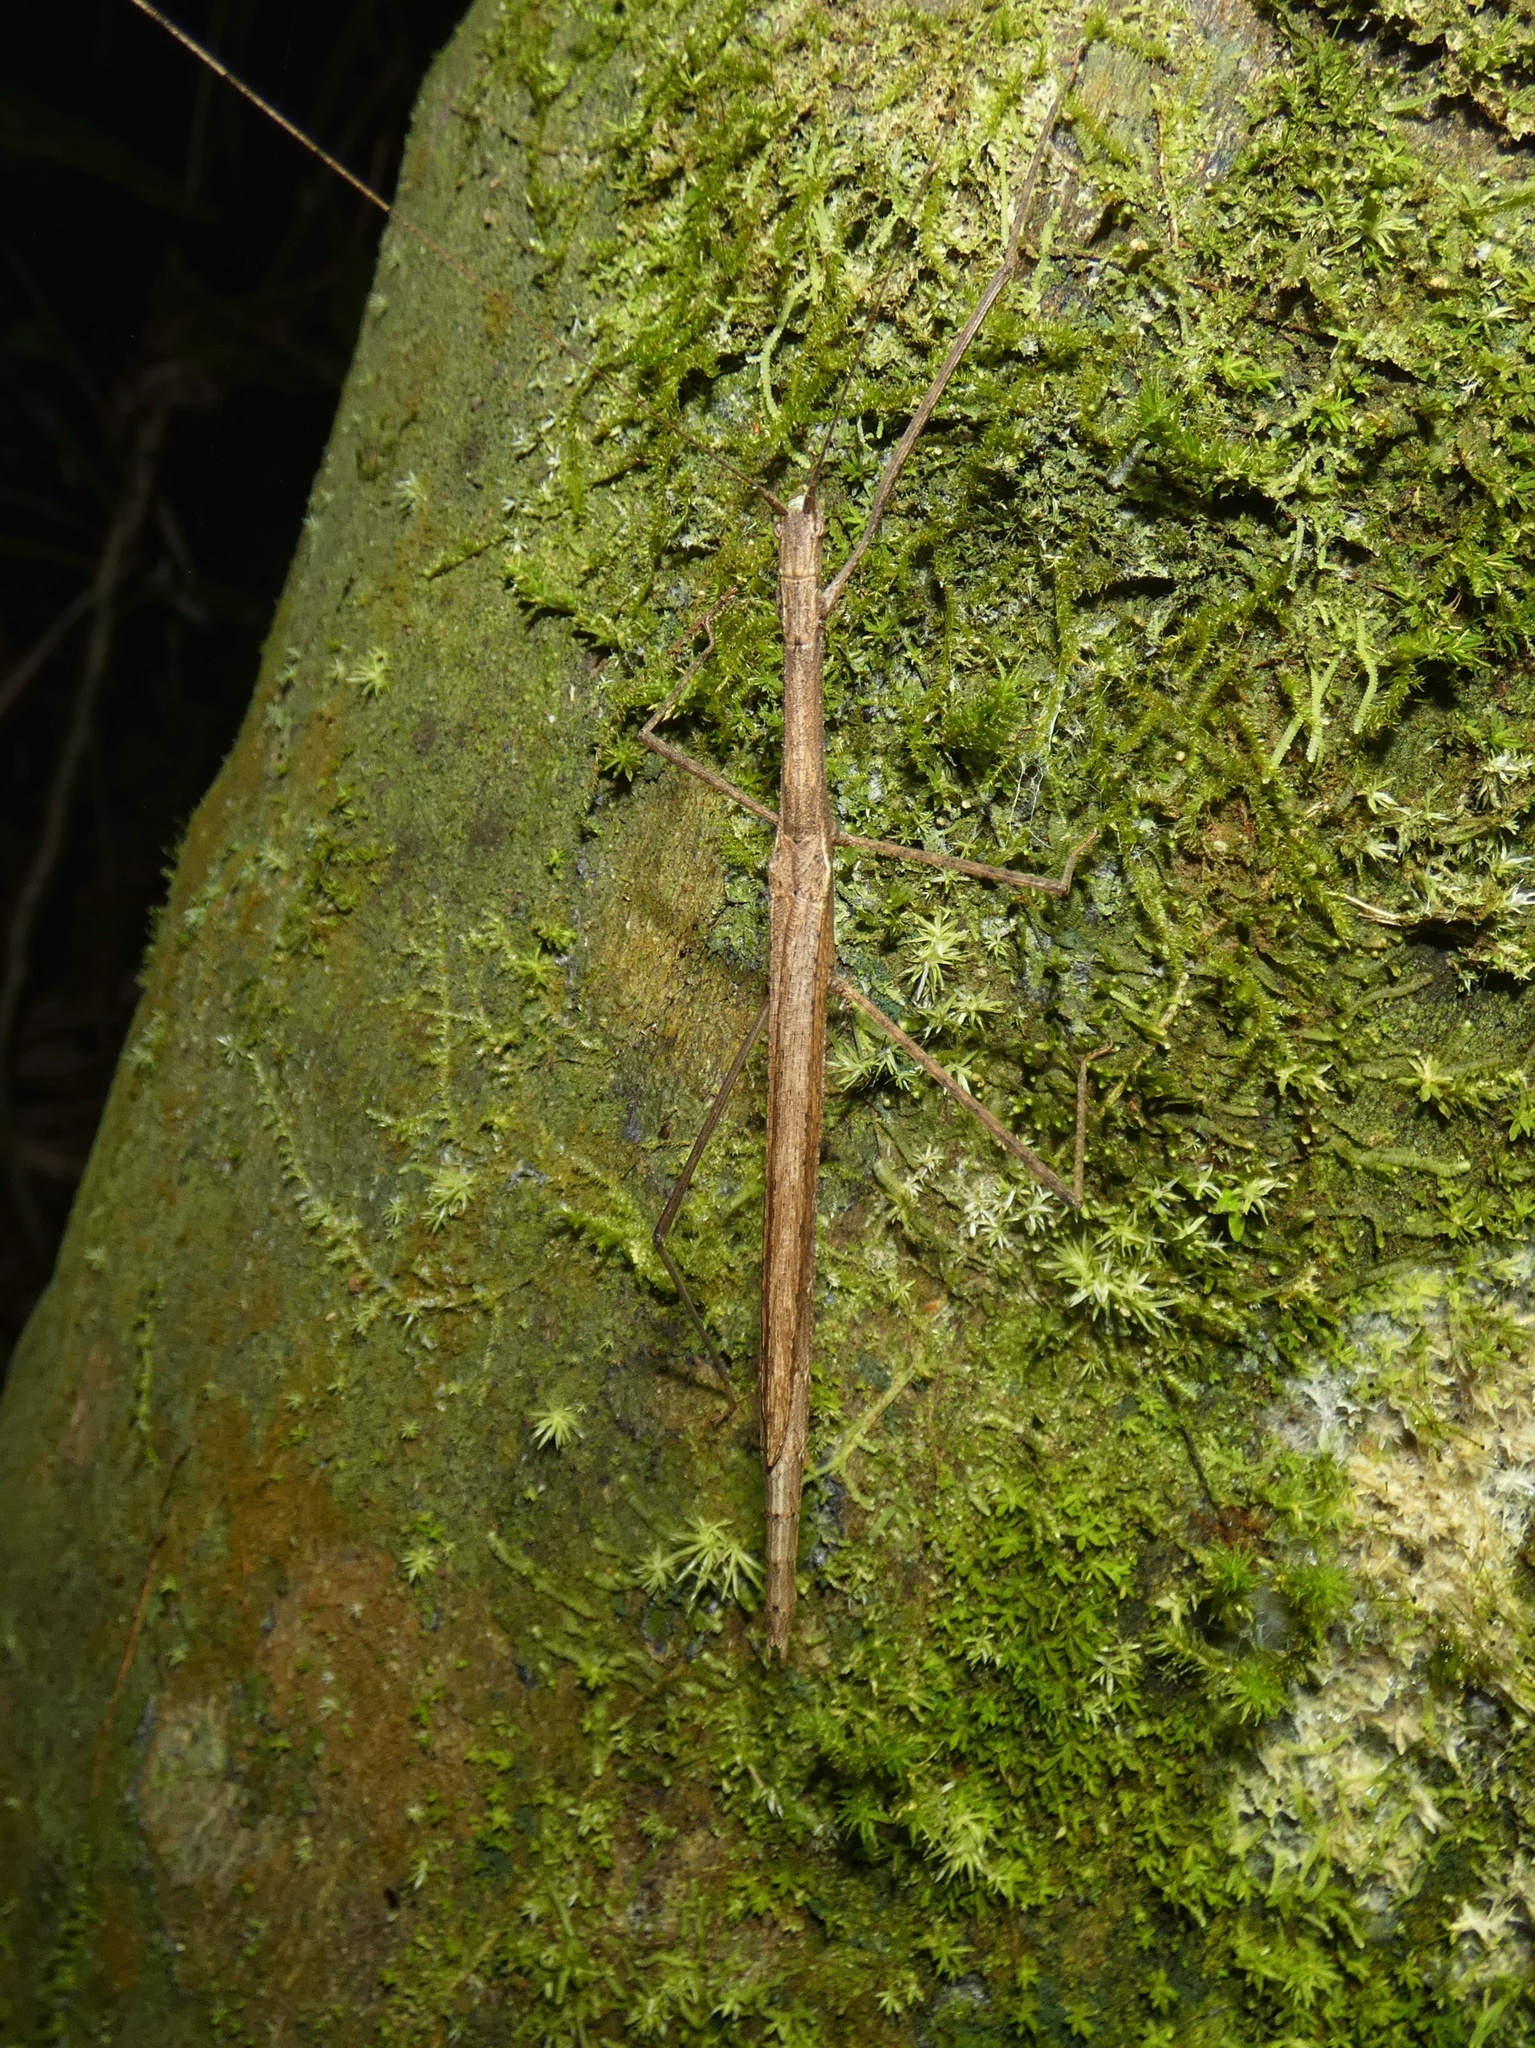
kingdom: Animalia
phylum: Arthropoda
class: Insecta
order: Phasmida
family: Lonchodidae
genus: Sipyloidea
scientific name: Sipyloidea larryi
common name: Hurricane larry stick-insect
